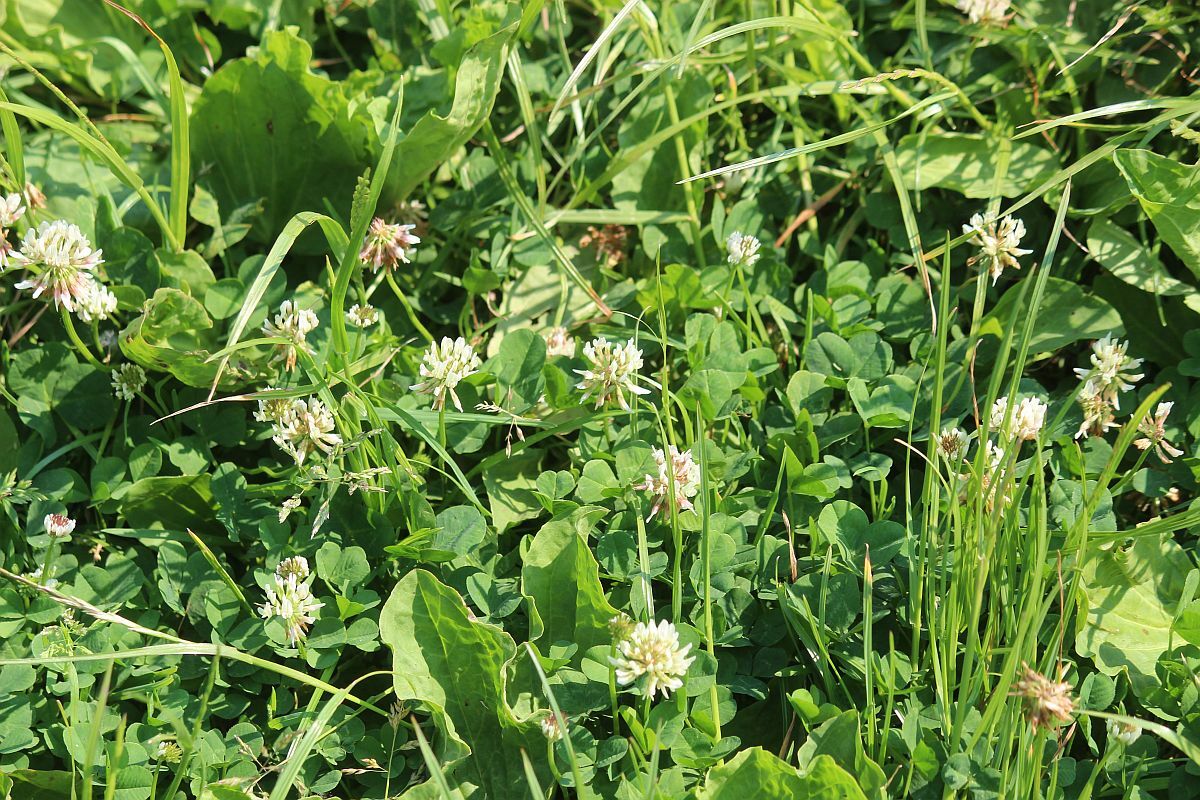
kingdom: Plantae
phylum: Tracheophyta
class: Magnoliopsida
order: Fabales
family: Fabaceae
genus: Trifolium
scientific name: Trifolium repens
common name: White clover
